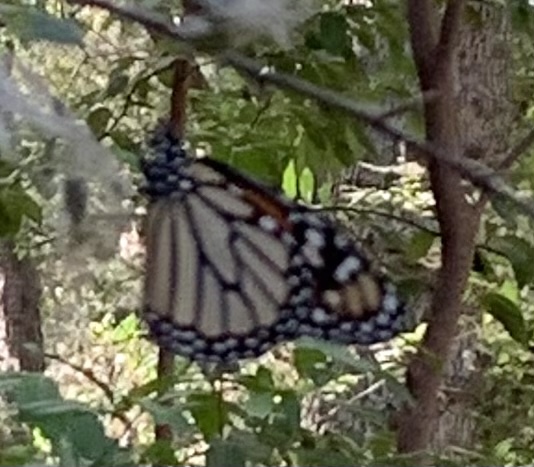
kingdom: Animalia
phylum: Arthropoda
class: Insecta
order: Lepidoptera
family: Nymphalidae
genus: Danaus
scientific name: Danaus plexippus
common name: Monarch
